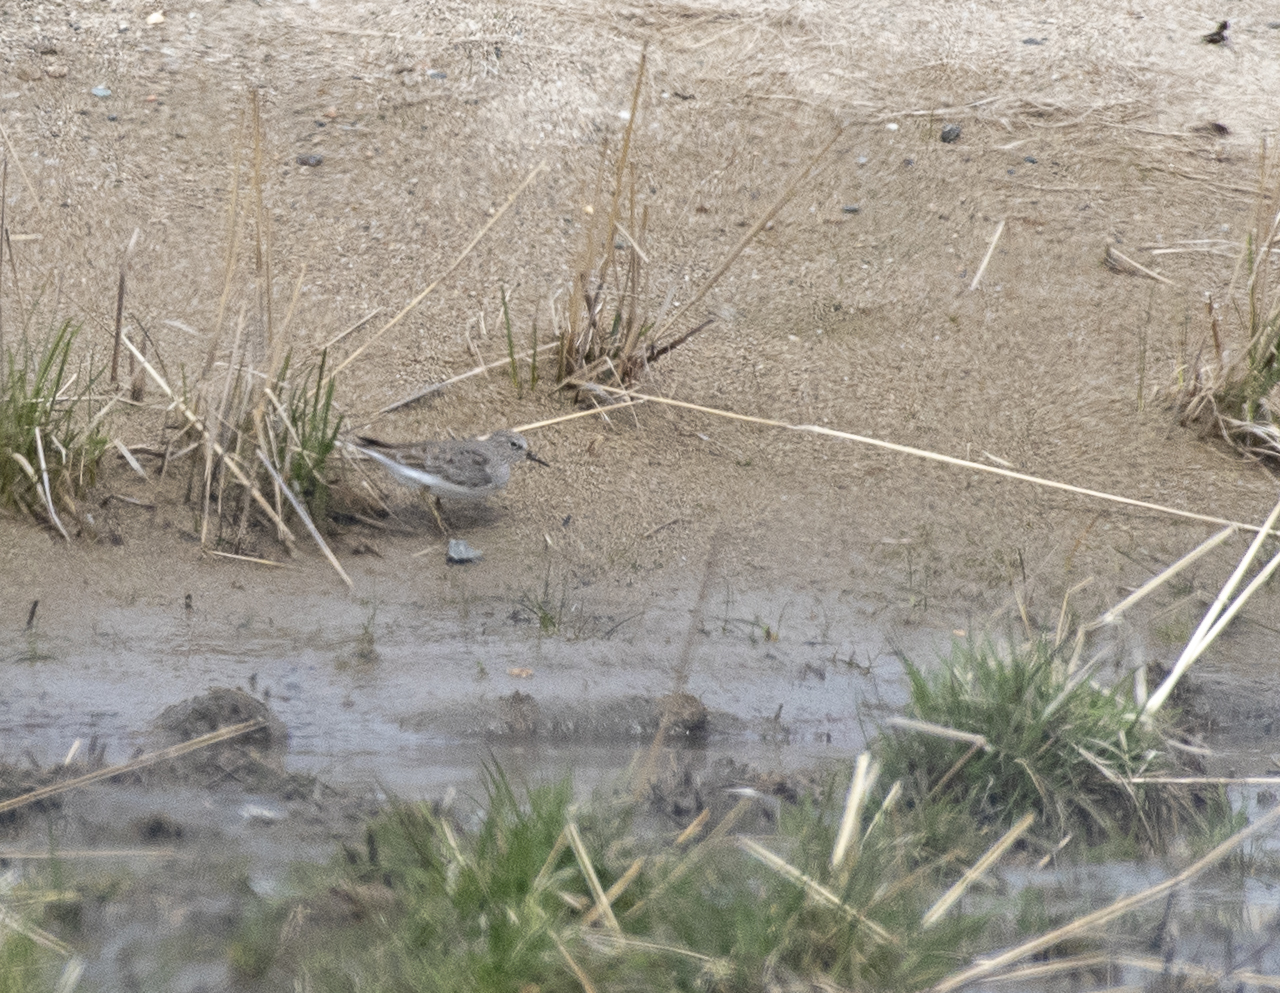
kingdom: Animalia
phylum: Chordata
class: Aves
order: Charadriiformes
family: Scolopacidae
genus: Calidris
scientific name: Calidris temminckii
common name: Temminck's stint
